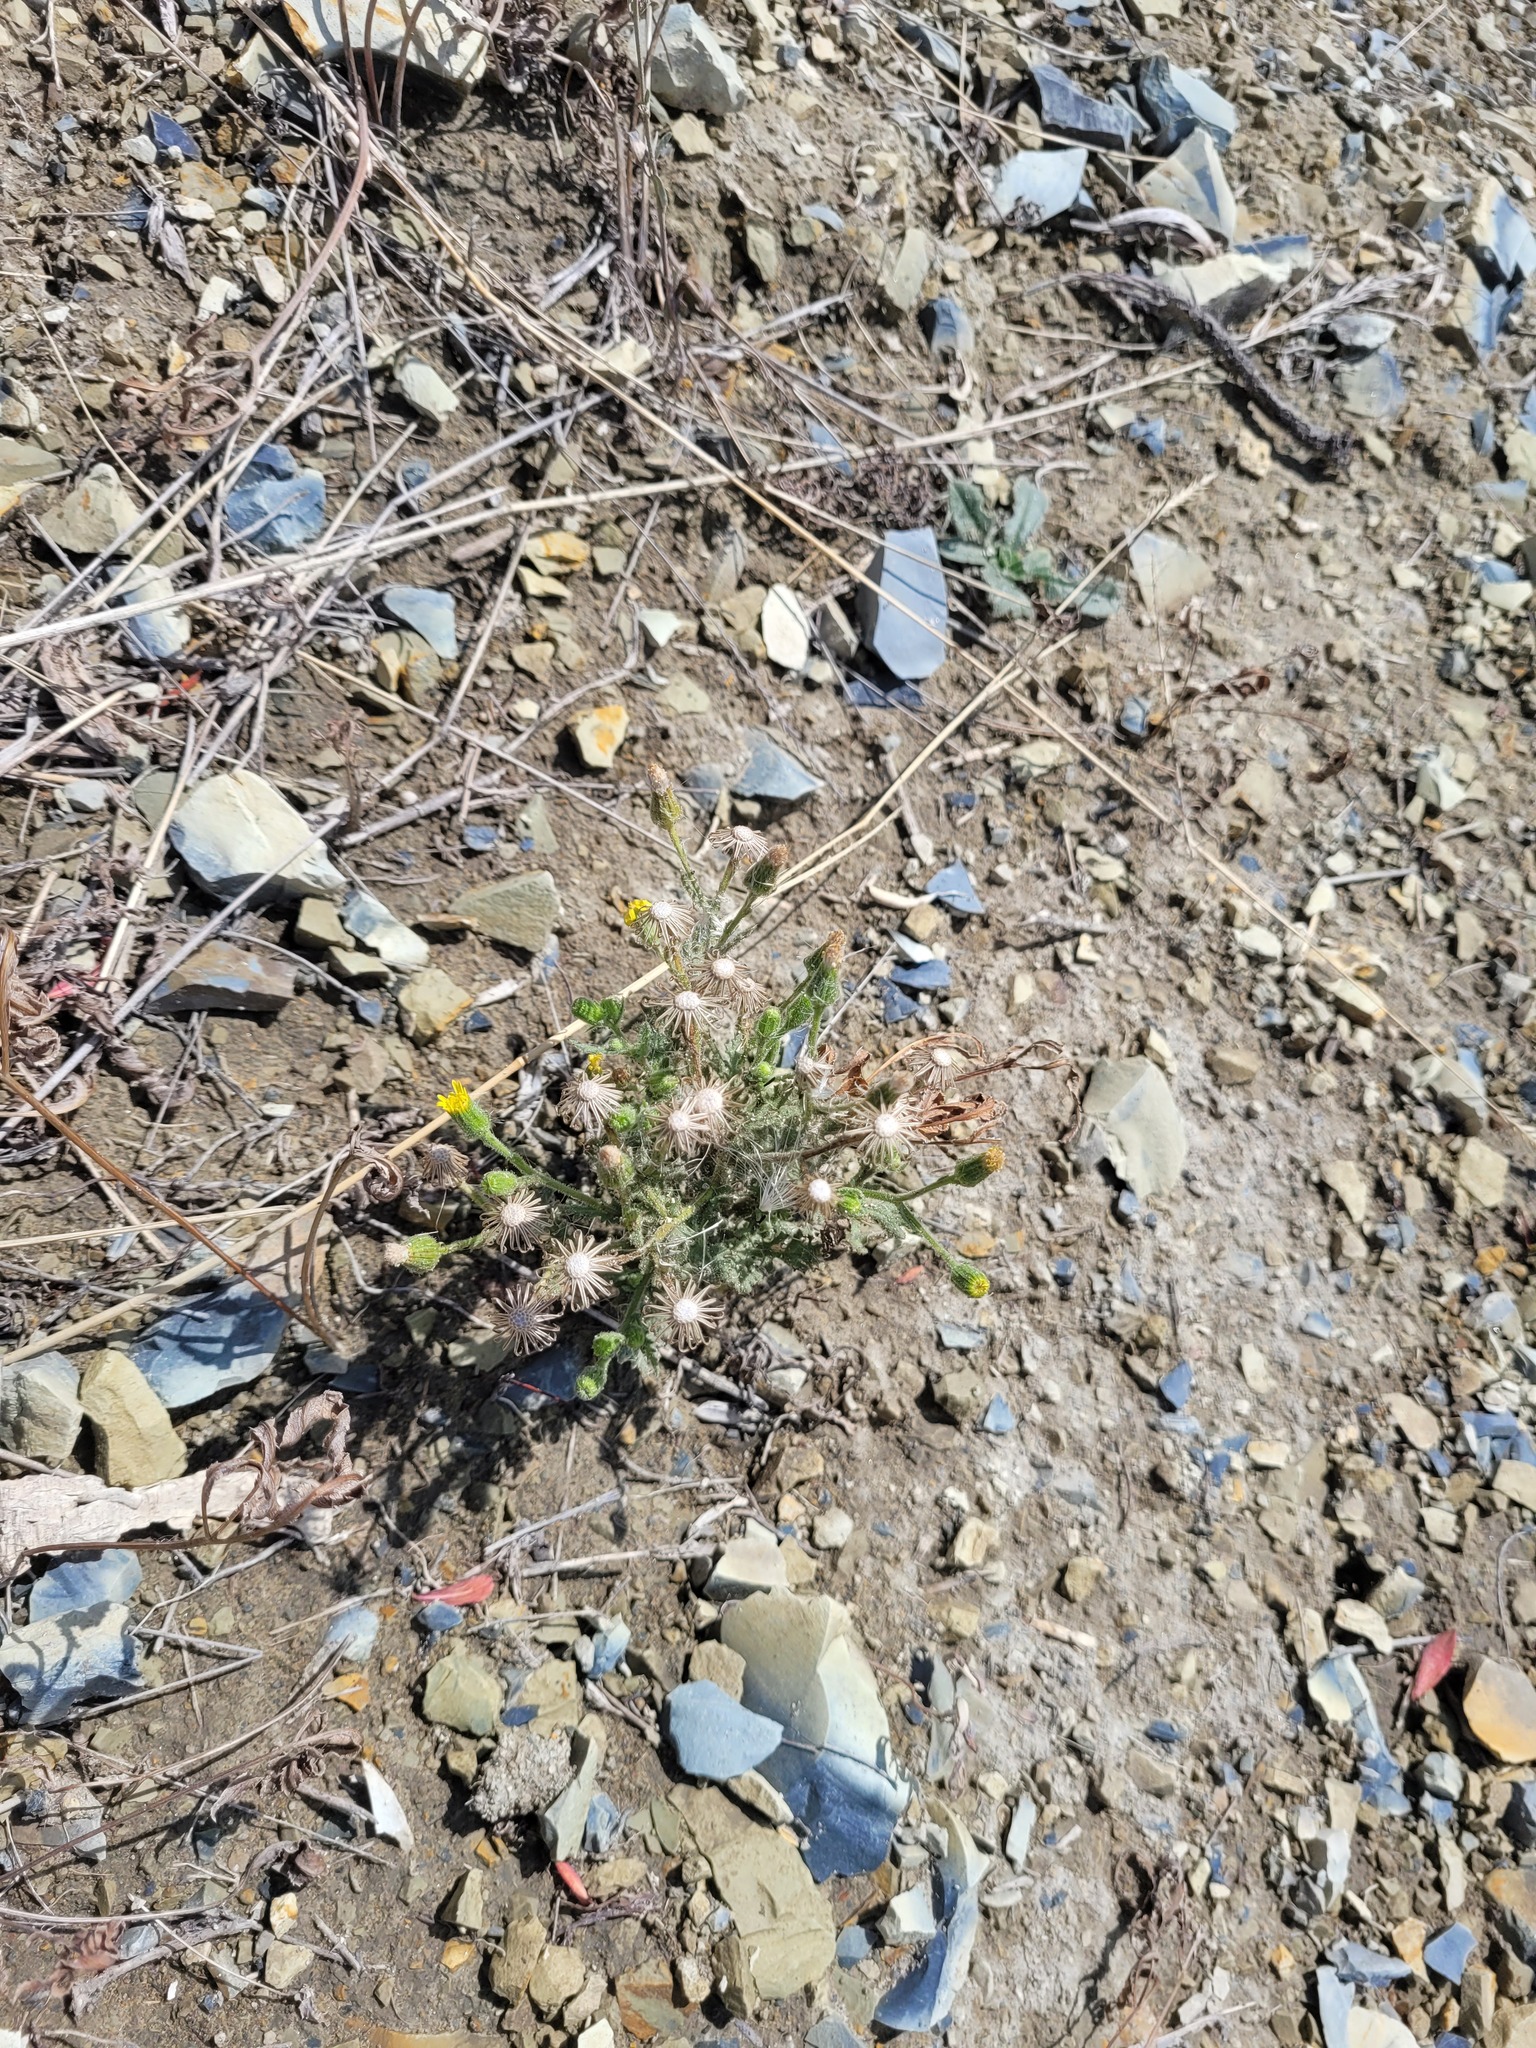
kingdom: Plantae
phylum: Tracheophyta
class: Magnoliopsida
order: Asterales
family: Asteraceae
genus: Senecio
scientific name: Senecio viscosus
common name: Sticky groundsel
